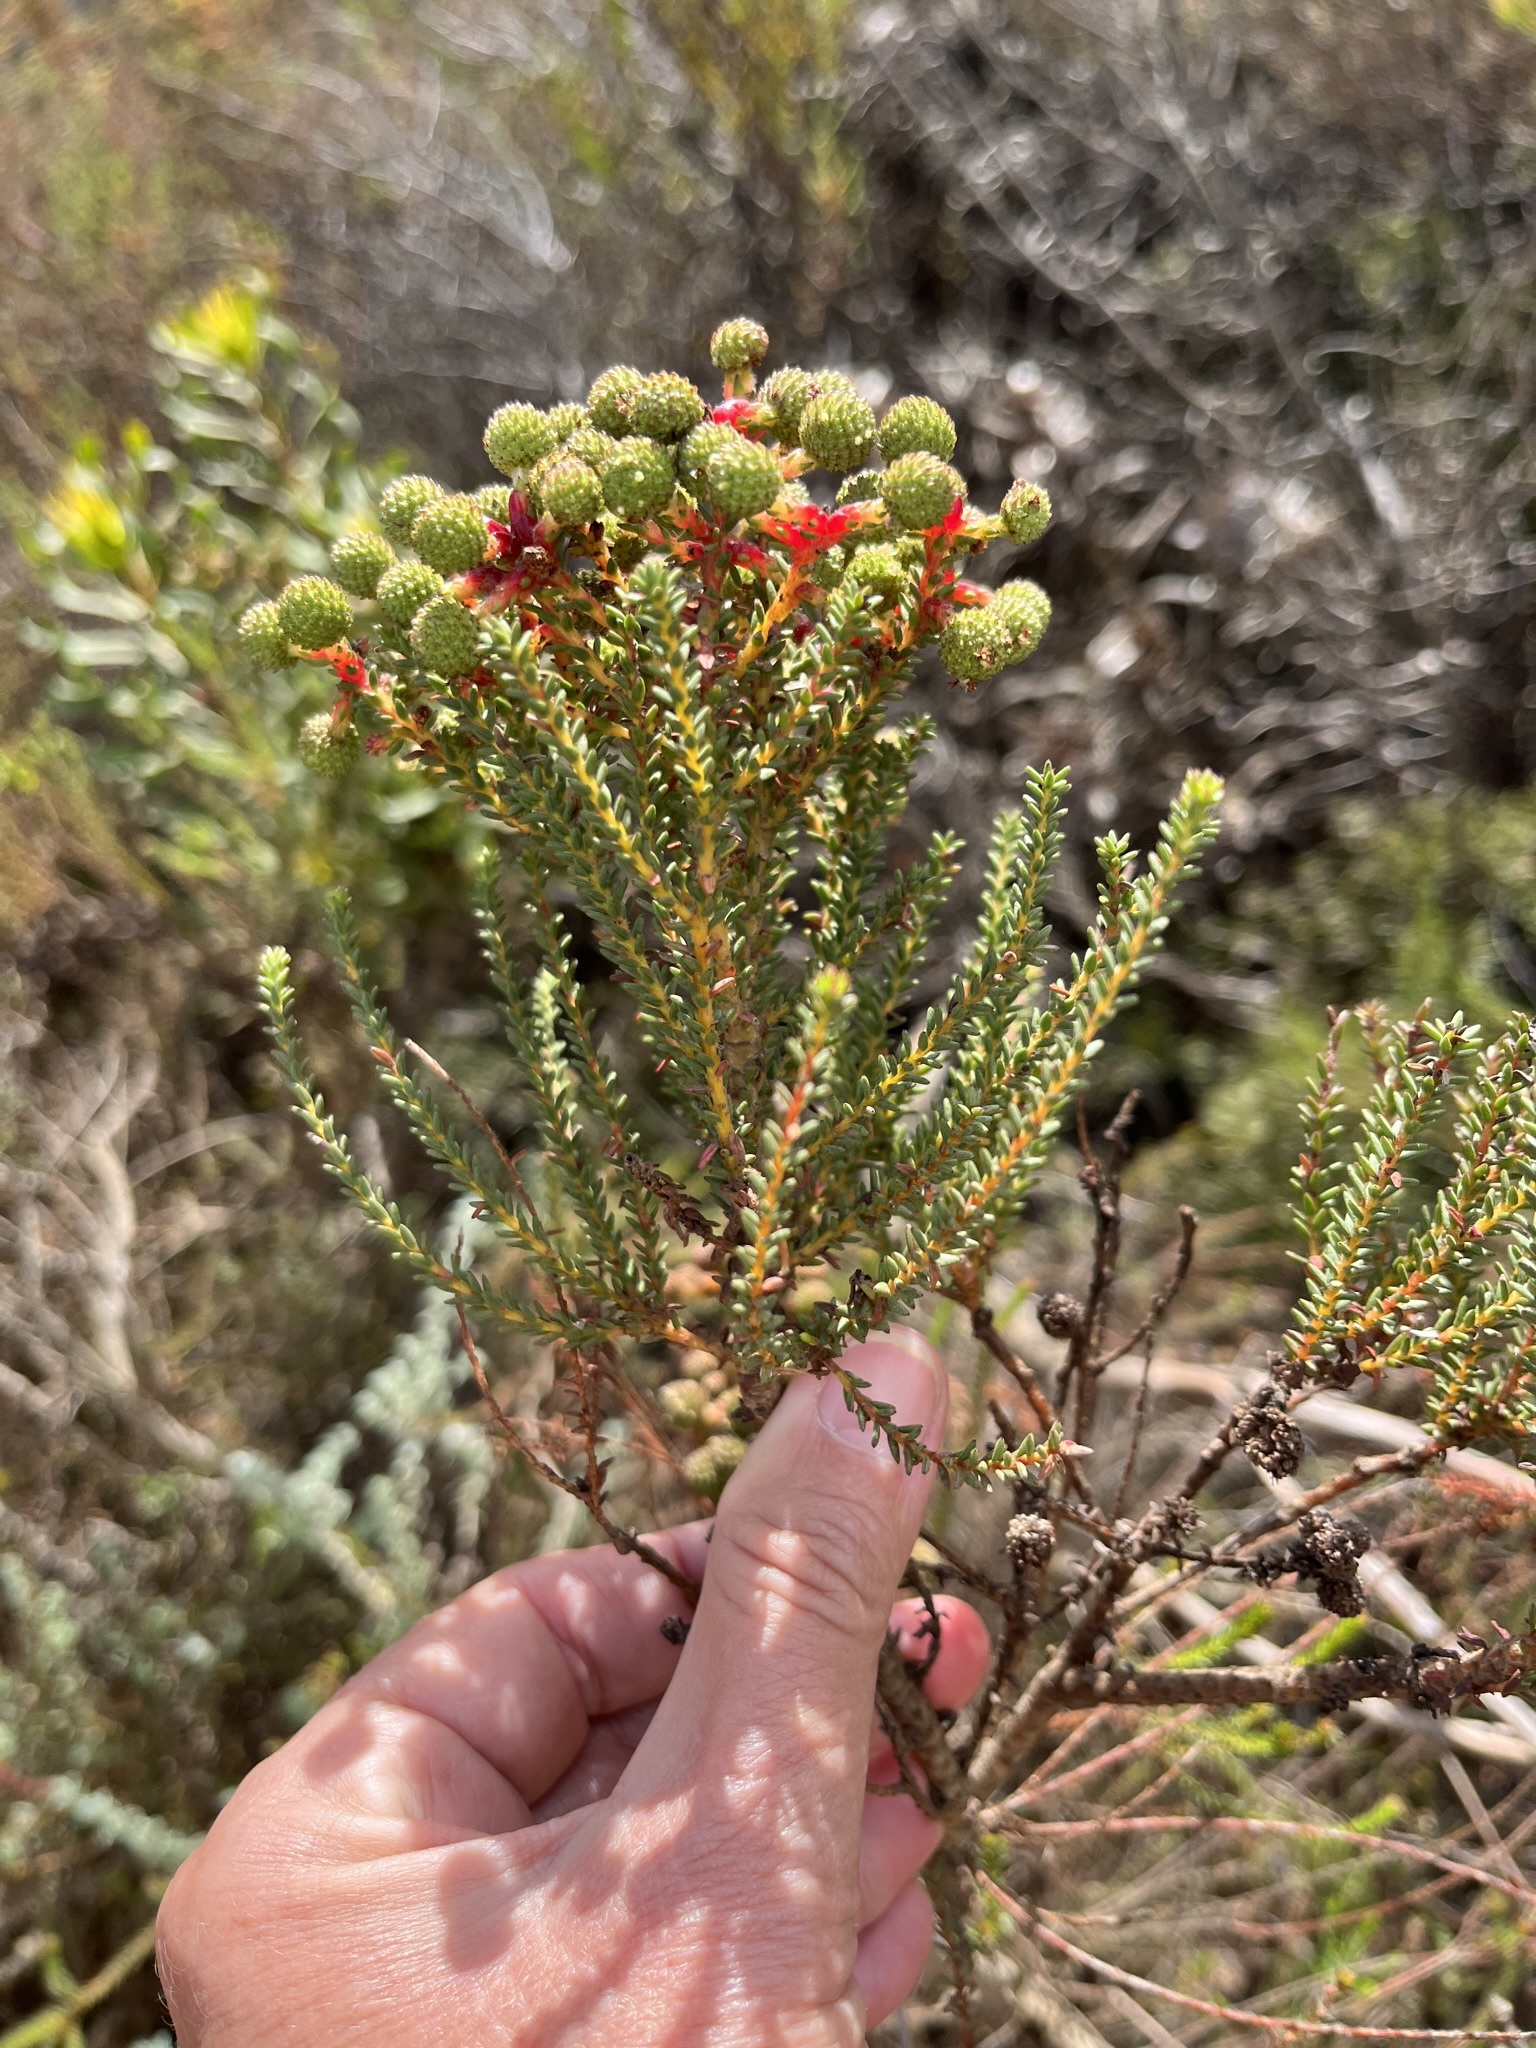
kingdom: Plantae
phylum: Tracheophyta
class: Magnoliopsida
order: Bruniales
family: Bruniaceae
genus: Berzelia
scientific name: Berzelia abrotanoides
